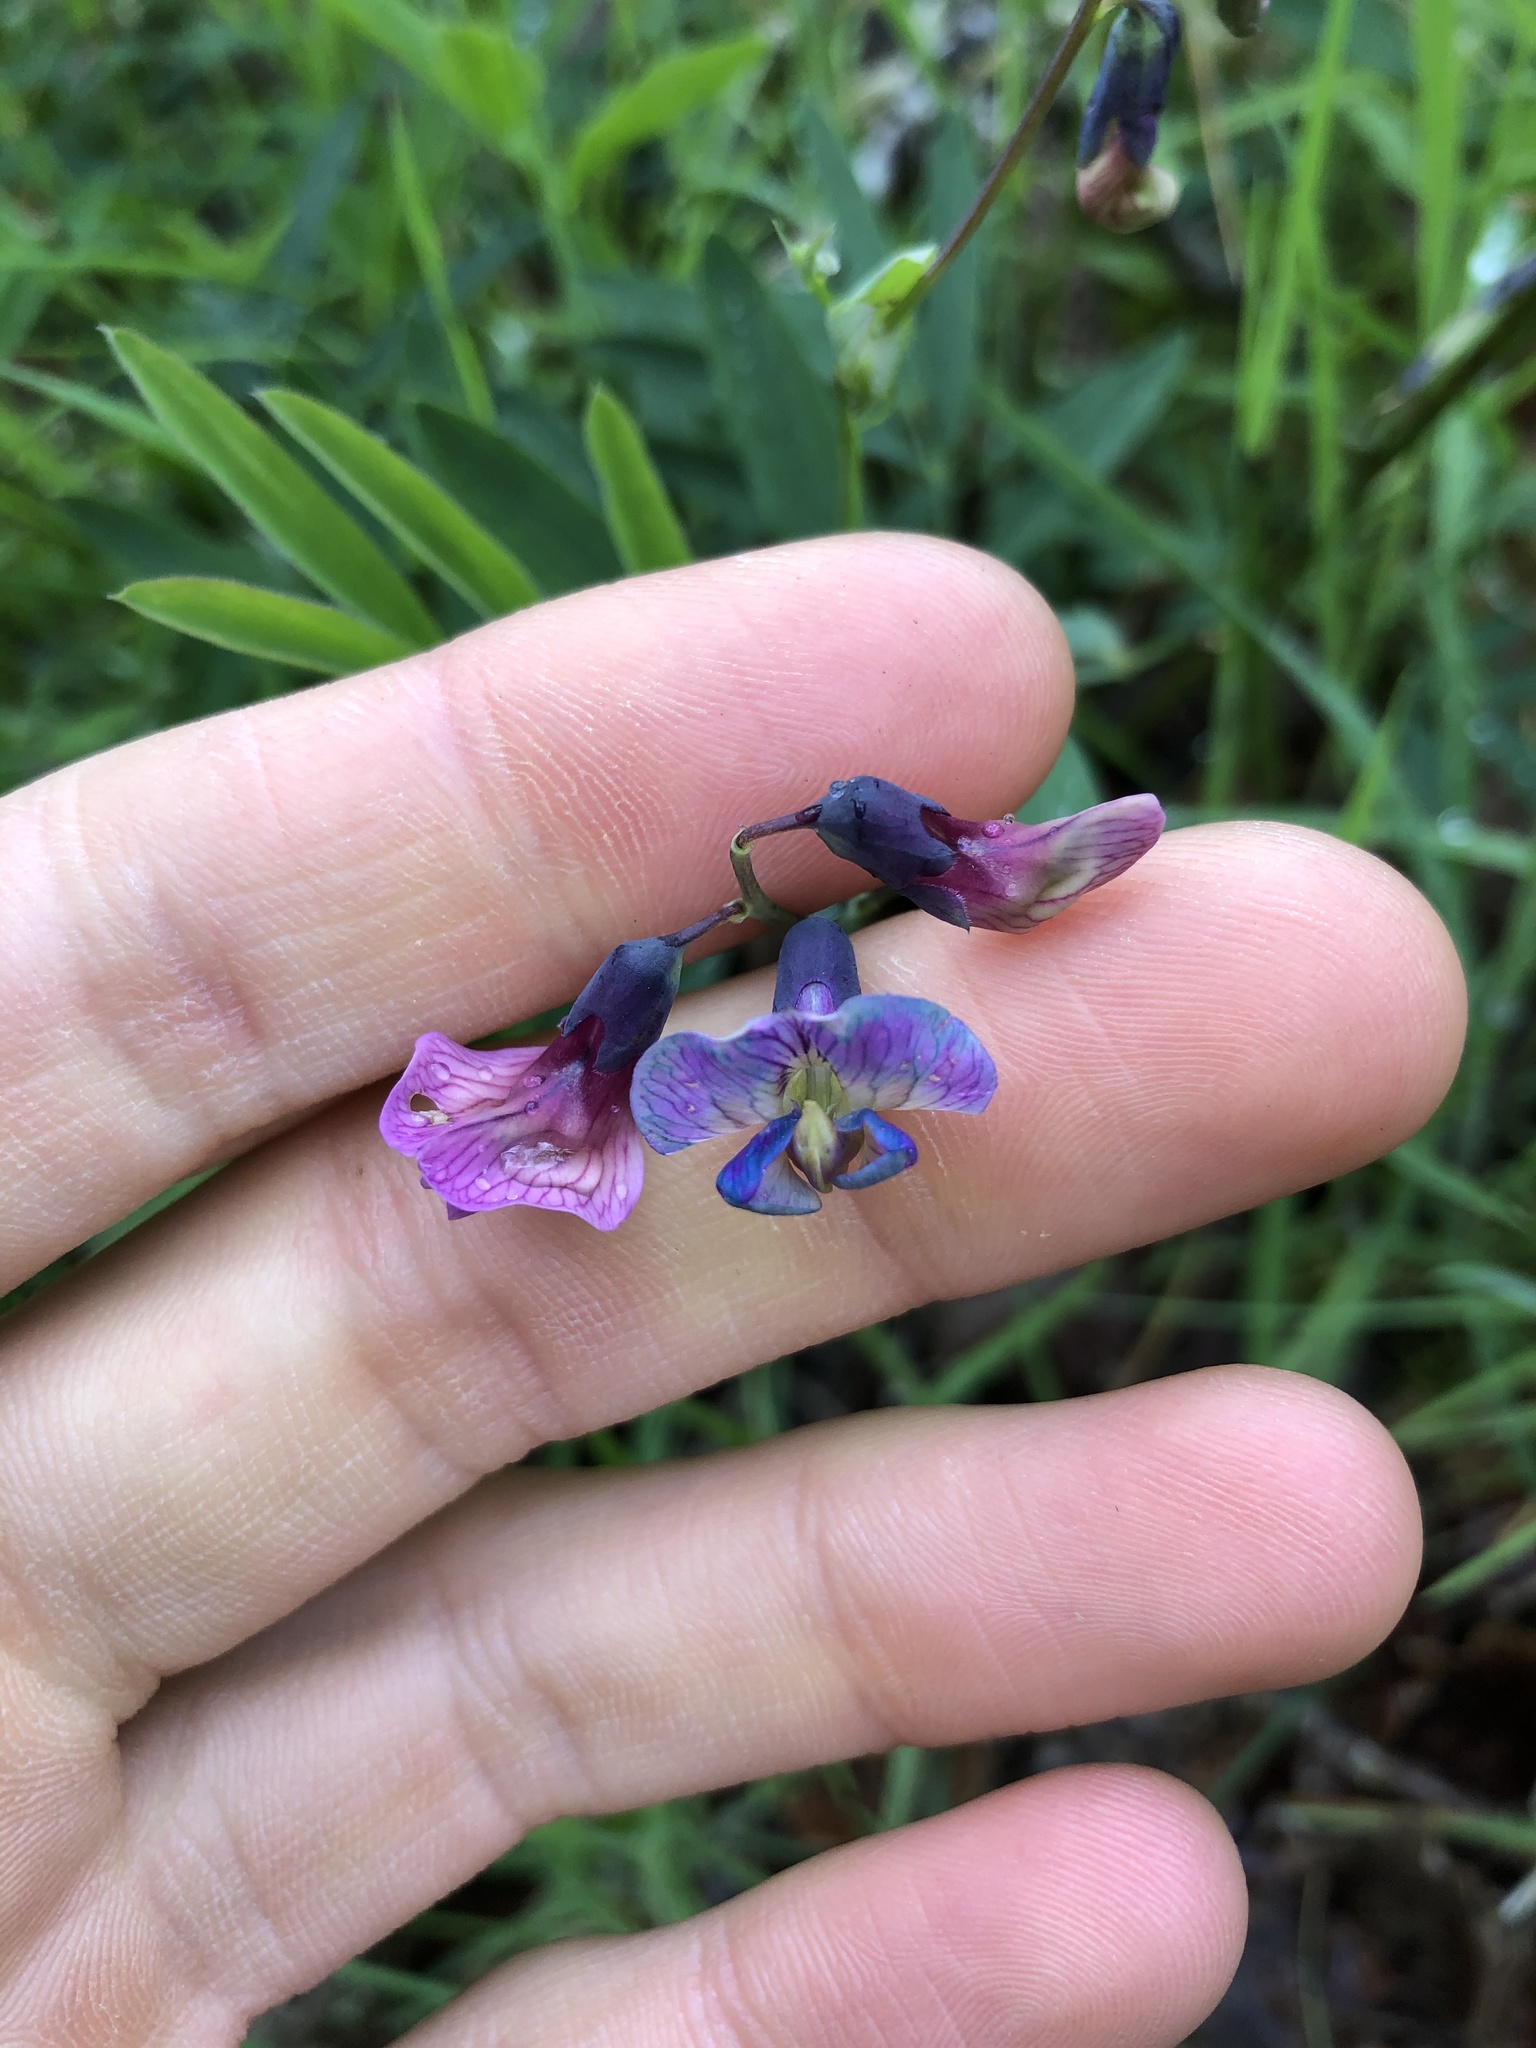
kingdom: Plantae
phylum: Tracheophyta
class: Magnoliopsida
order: Fabales
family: Fabaceae
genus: Lathyrus
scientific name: Lathyrus linifolius
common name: Bitter-vetch
